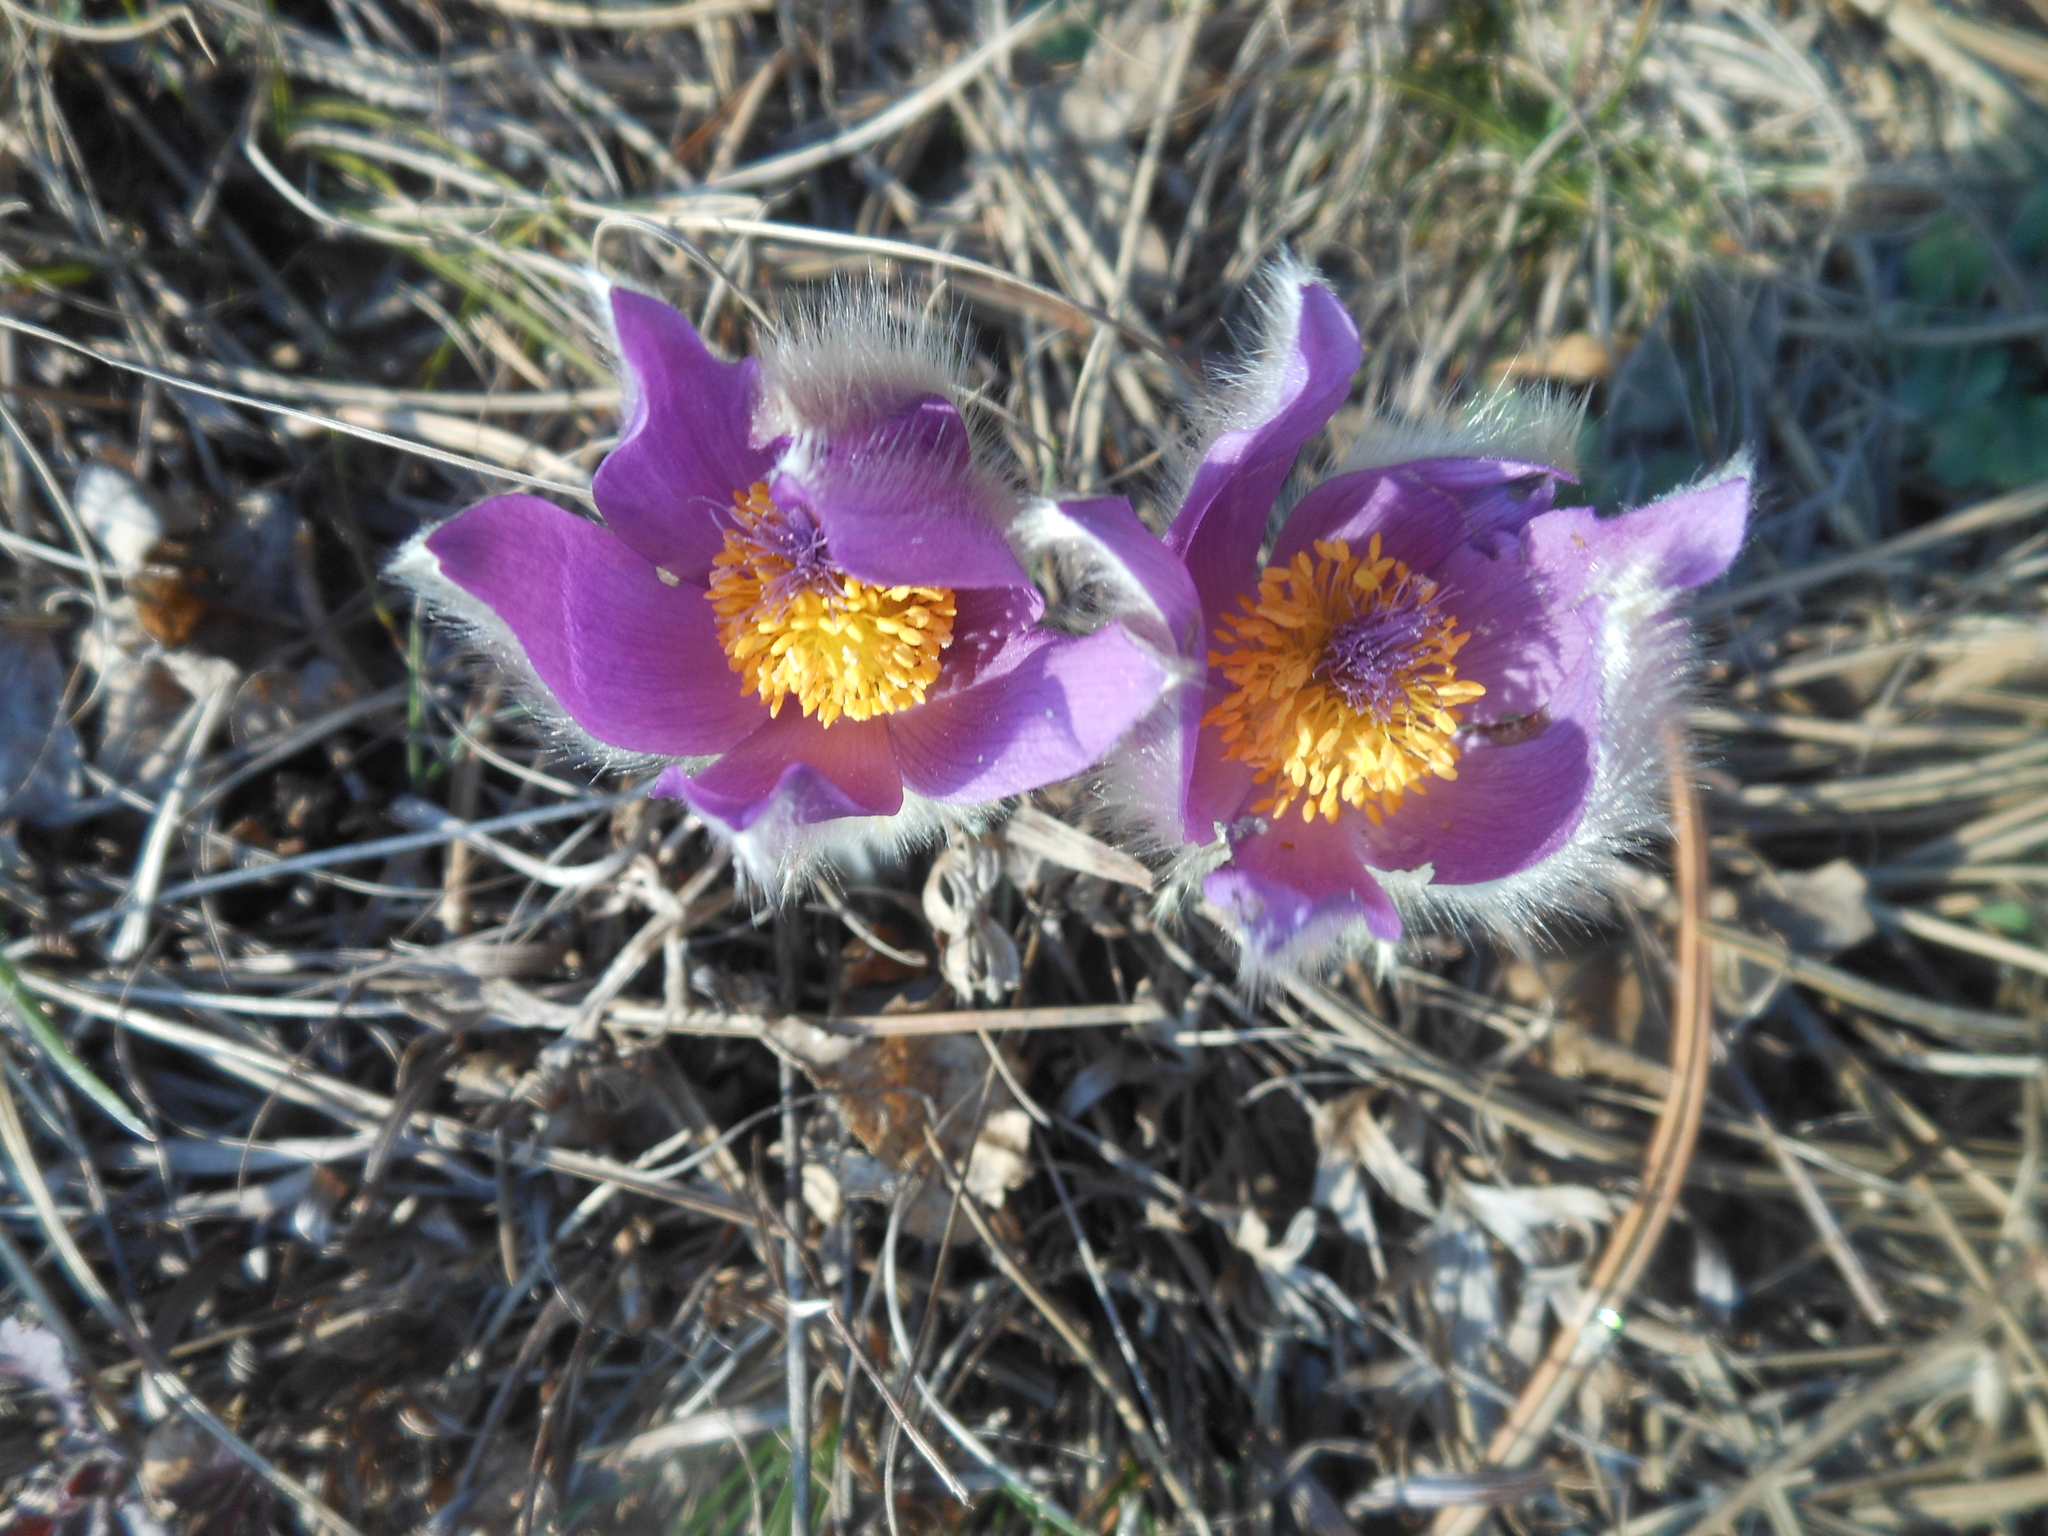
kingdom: Plantae
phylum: Tracheophyta
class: Magnoliopsida
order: Ranunculales
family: Ranunculaceae
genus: Pulsatilla
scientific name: Pulsatilla grandis
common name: Greater pasque flower
